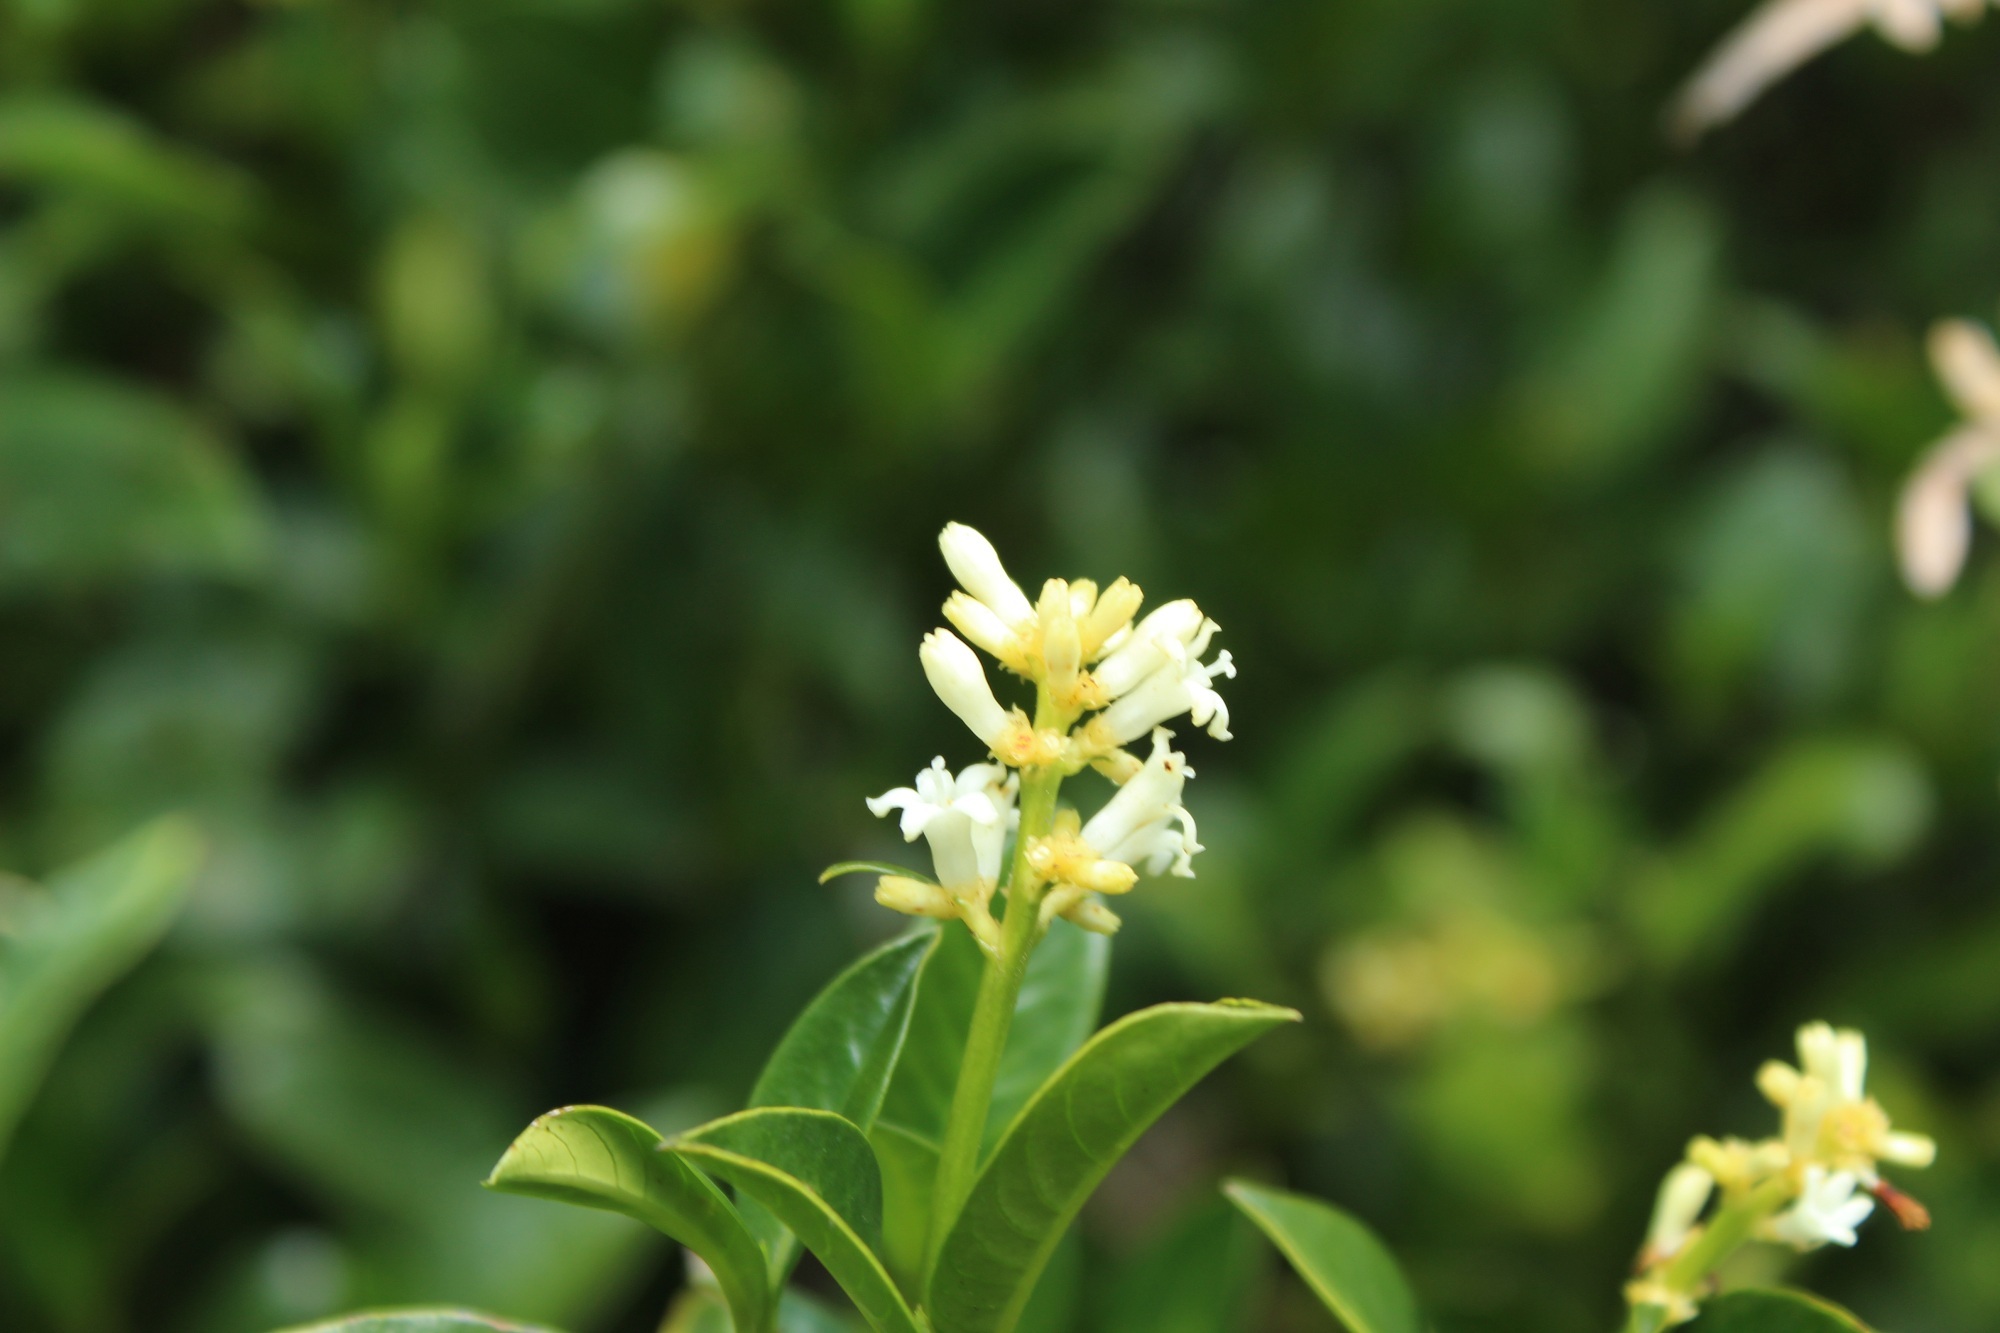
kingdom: Plantae
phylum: Tracheophyta
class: Magnoliopsida
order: Gentianales
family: Rubiaceae
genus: Palicourea
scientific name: Palicourea boqueronensis
